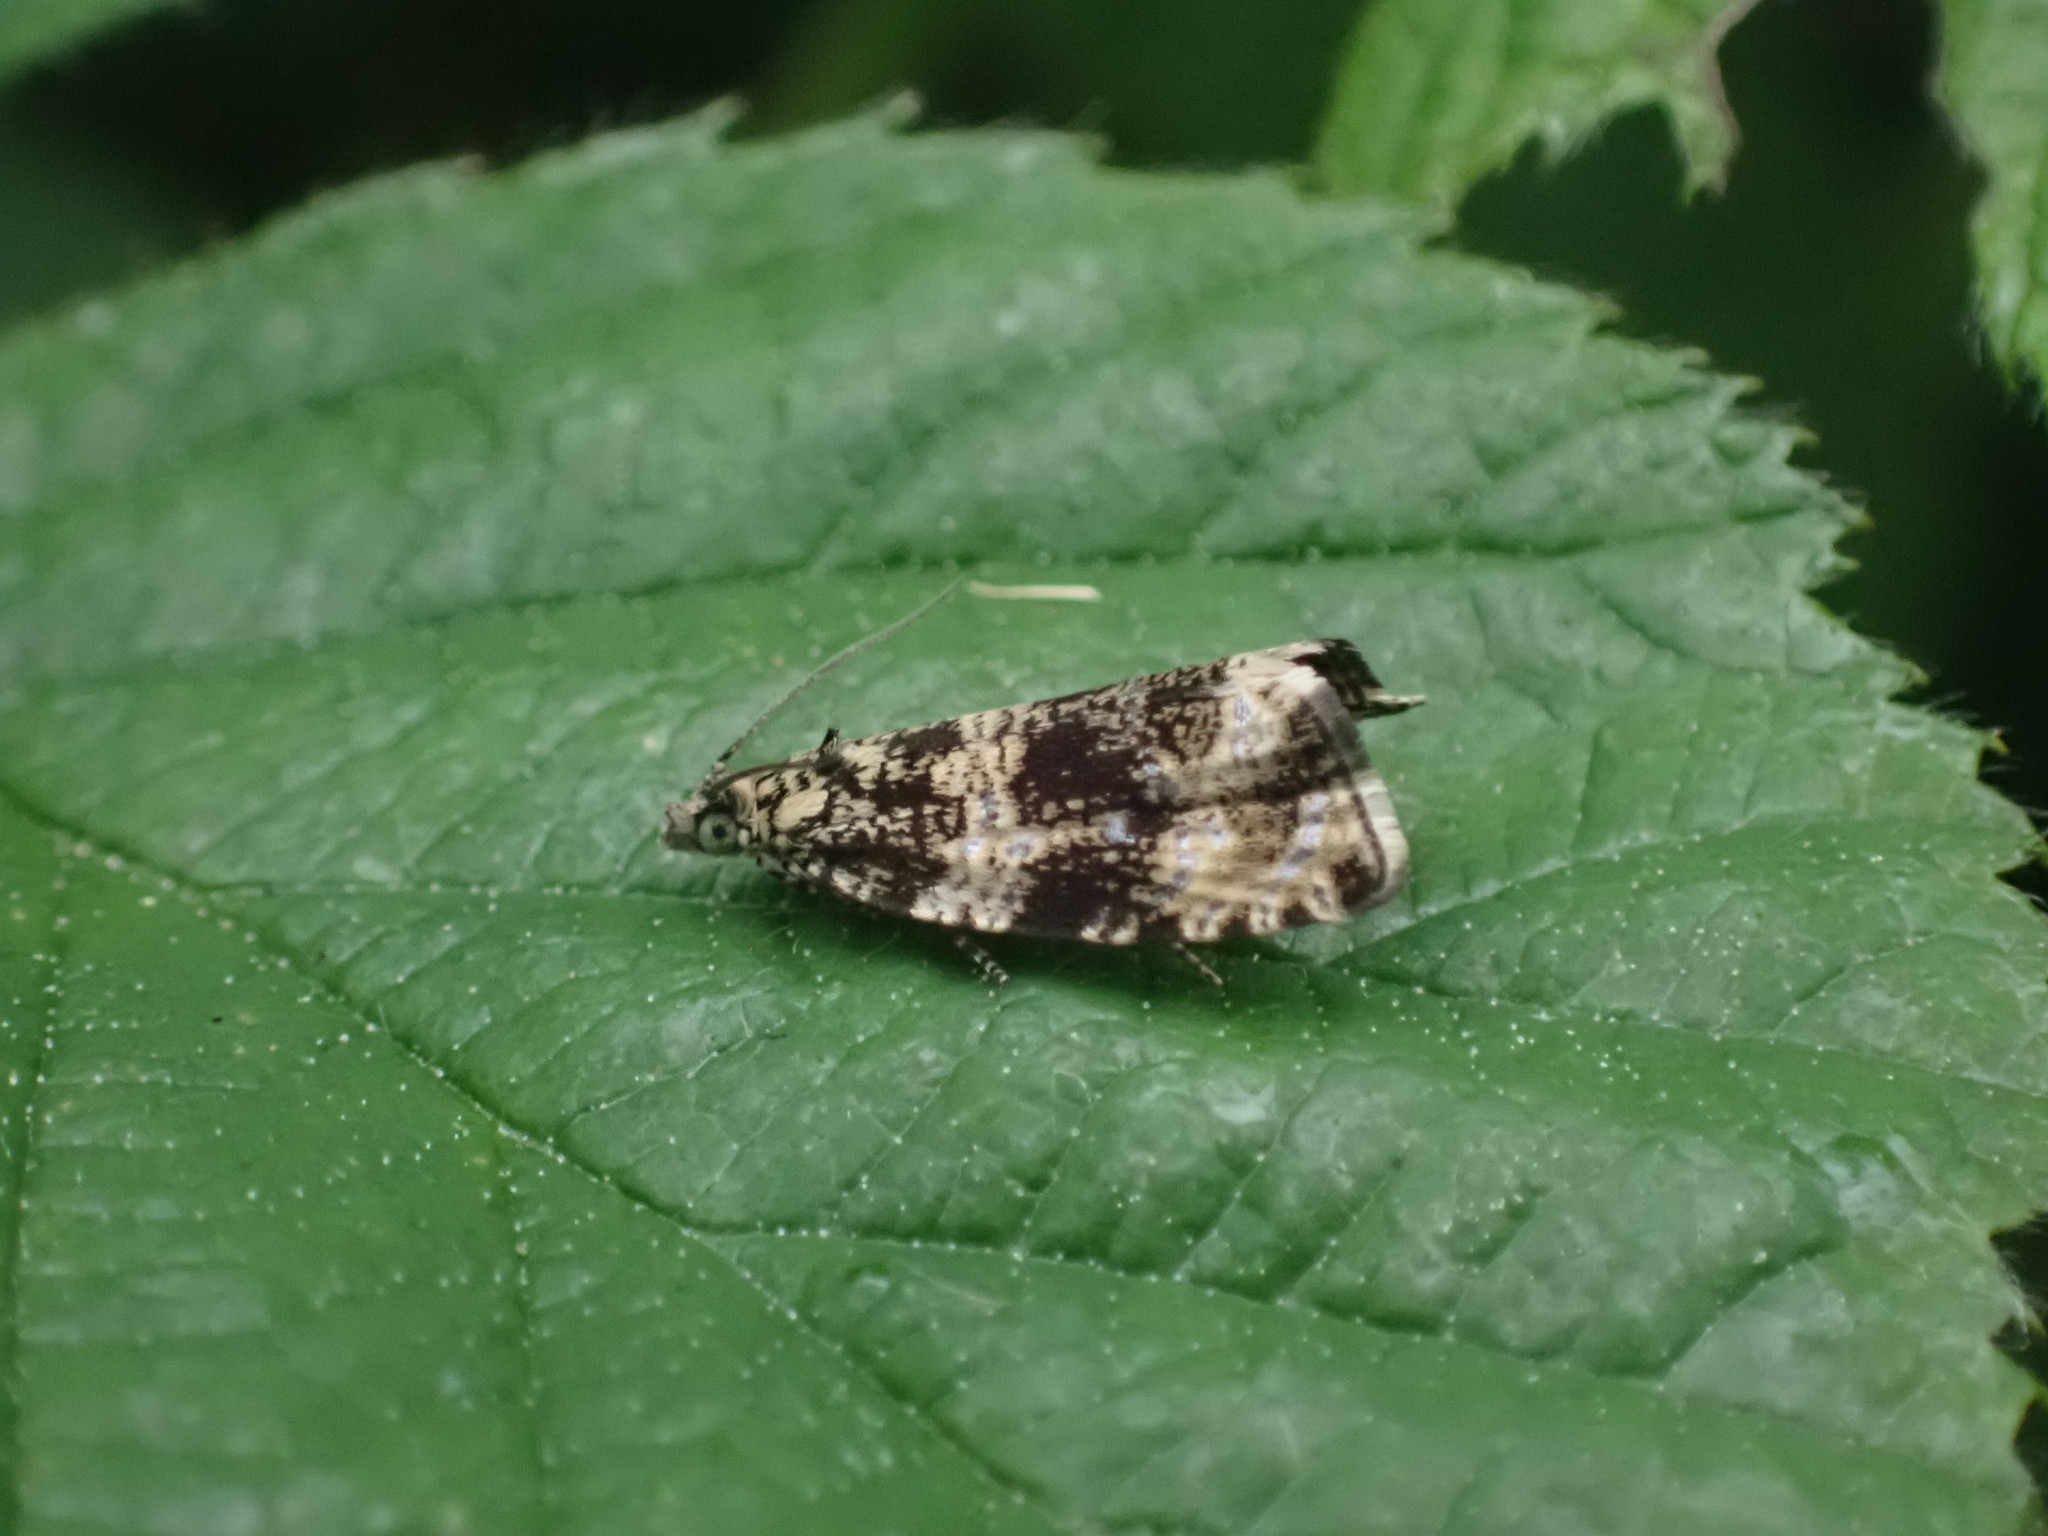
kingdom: Animalia
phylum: Arthropoda
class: Insecta
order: Lepidoptera
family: Tortricidae
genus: Syricoris
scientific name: Syricoris lacunana
